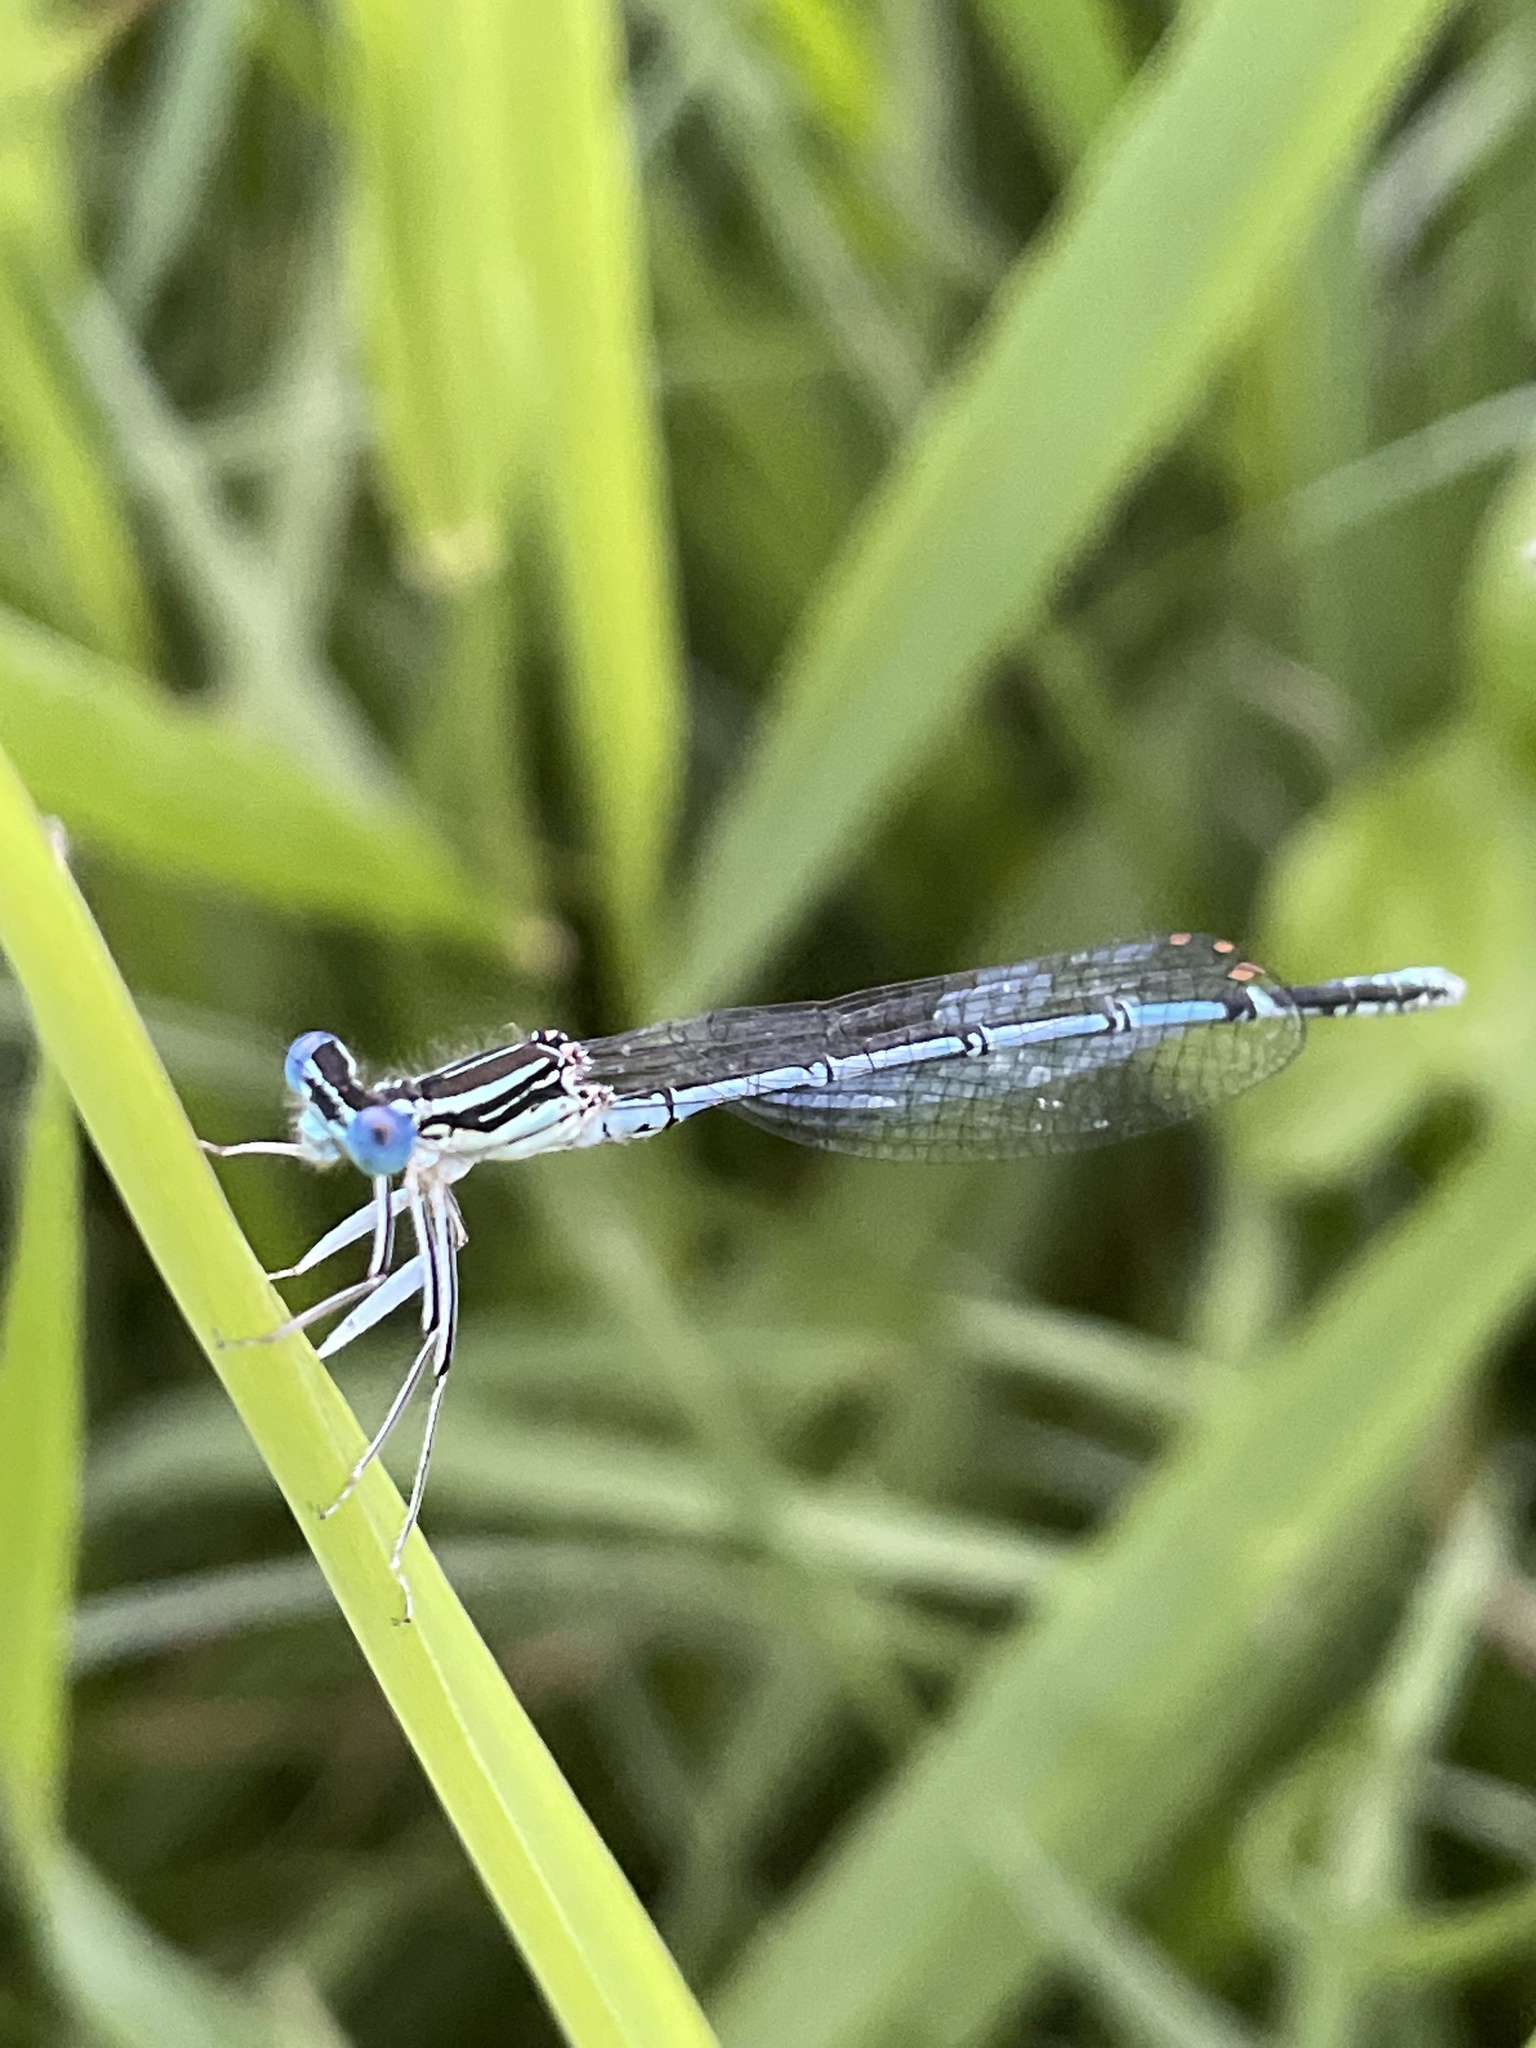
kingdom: Animalia
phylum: Arthropoda
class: Insecta
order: Odonata
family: Platycnemididae
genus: Platycnemis
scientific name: Platycnemis pennipes
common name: White-legged damselfly
